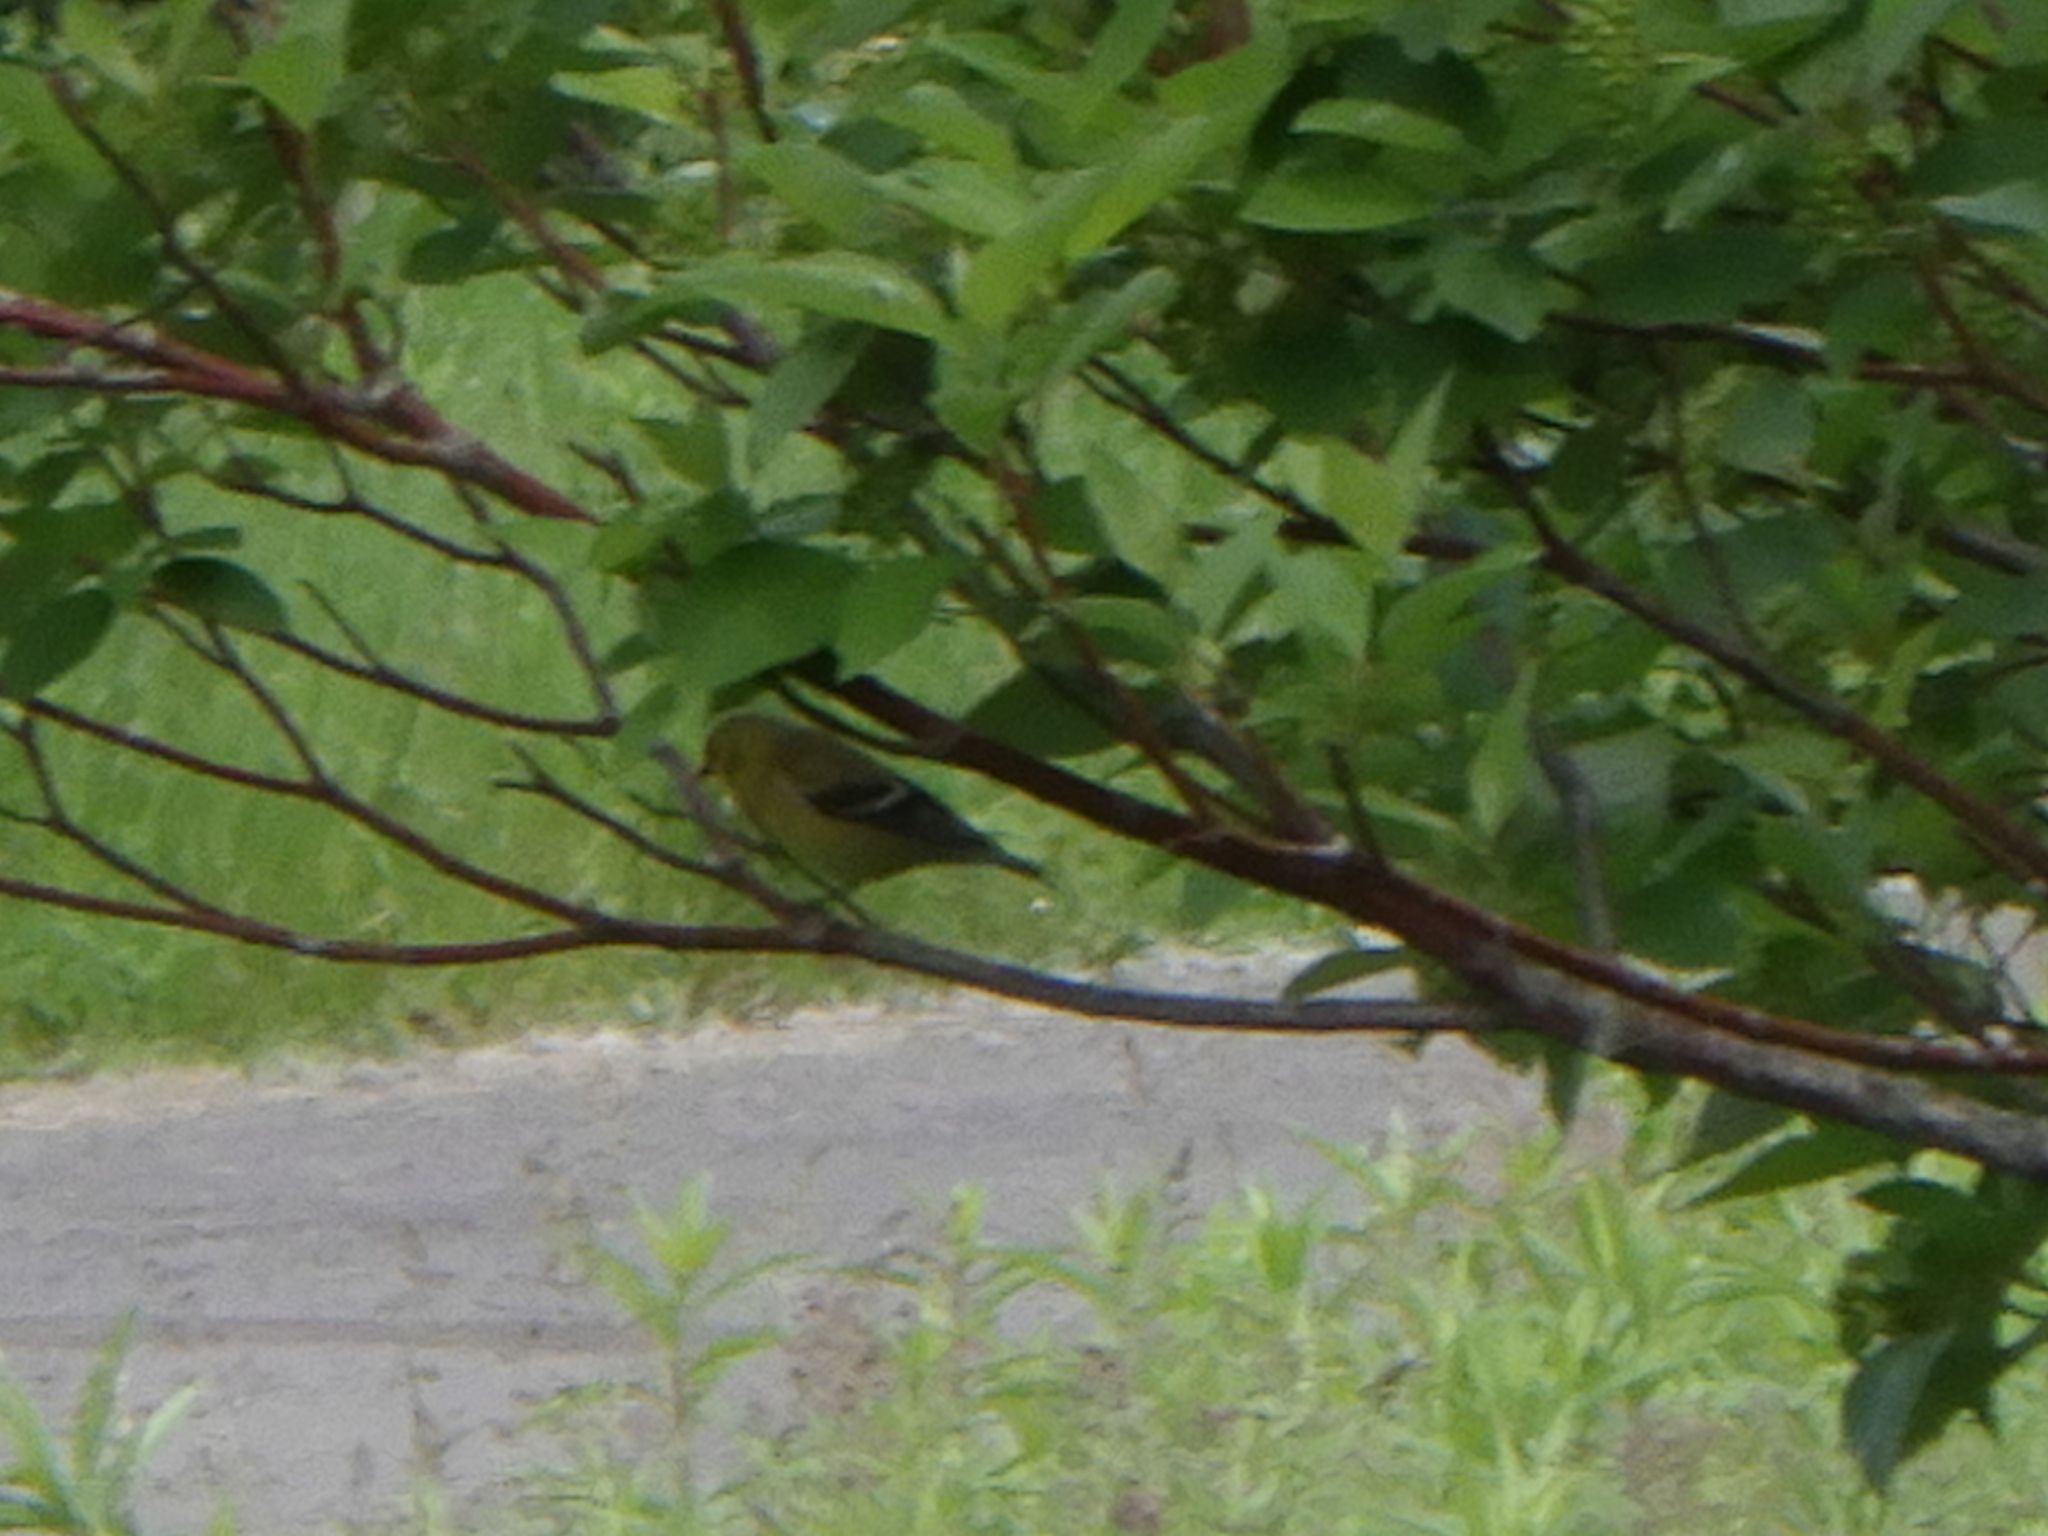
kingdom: Animalia
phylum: Chordata
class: Aves
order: Passeriformes
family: Fringillidae
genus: Spinus
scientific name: Spinus tristis
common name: American goldfinch
